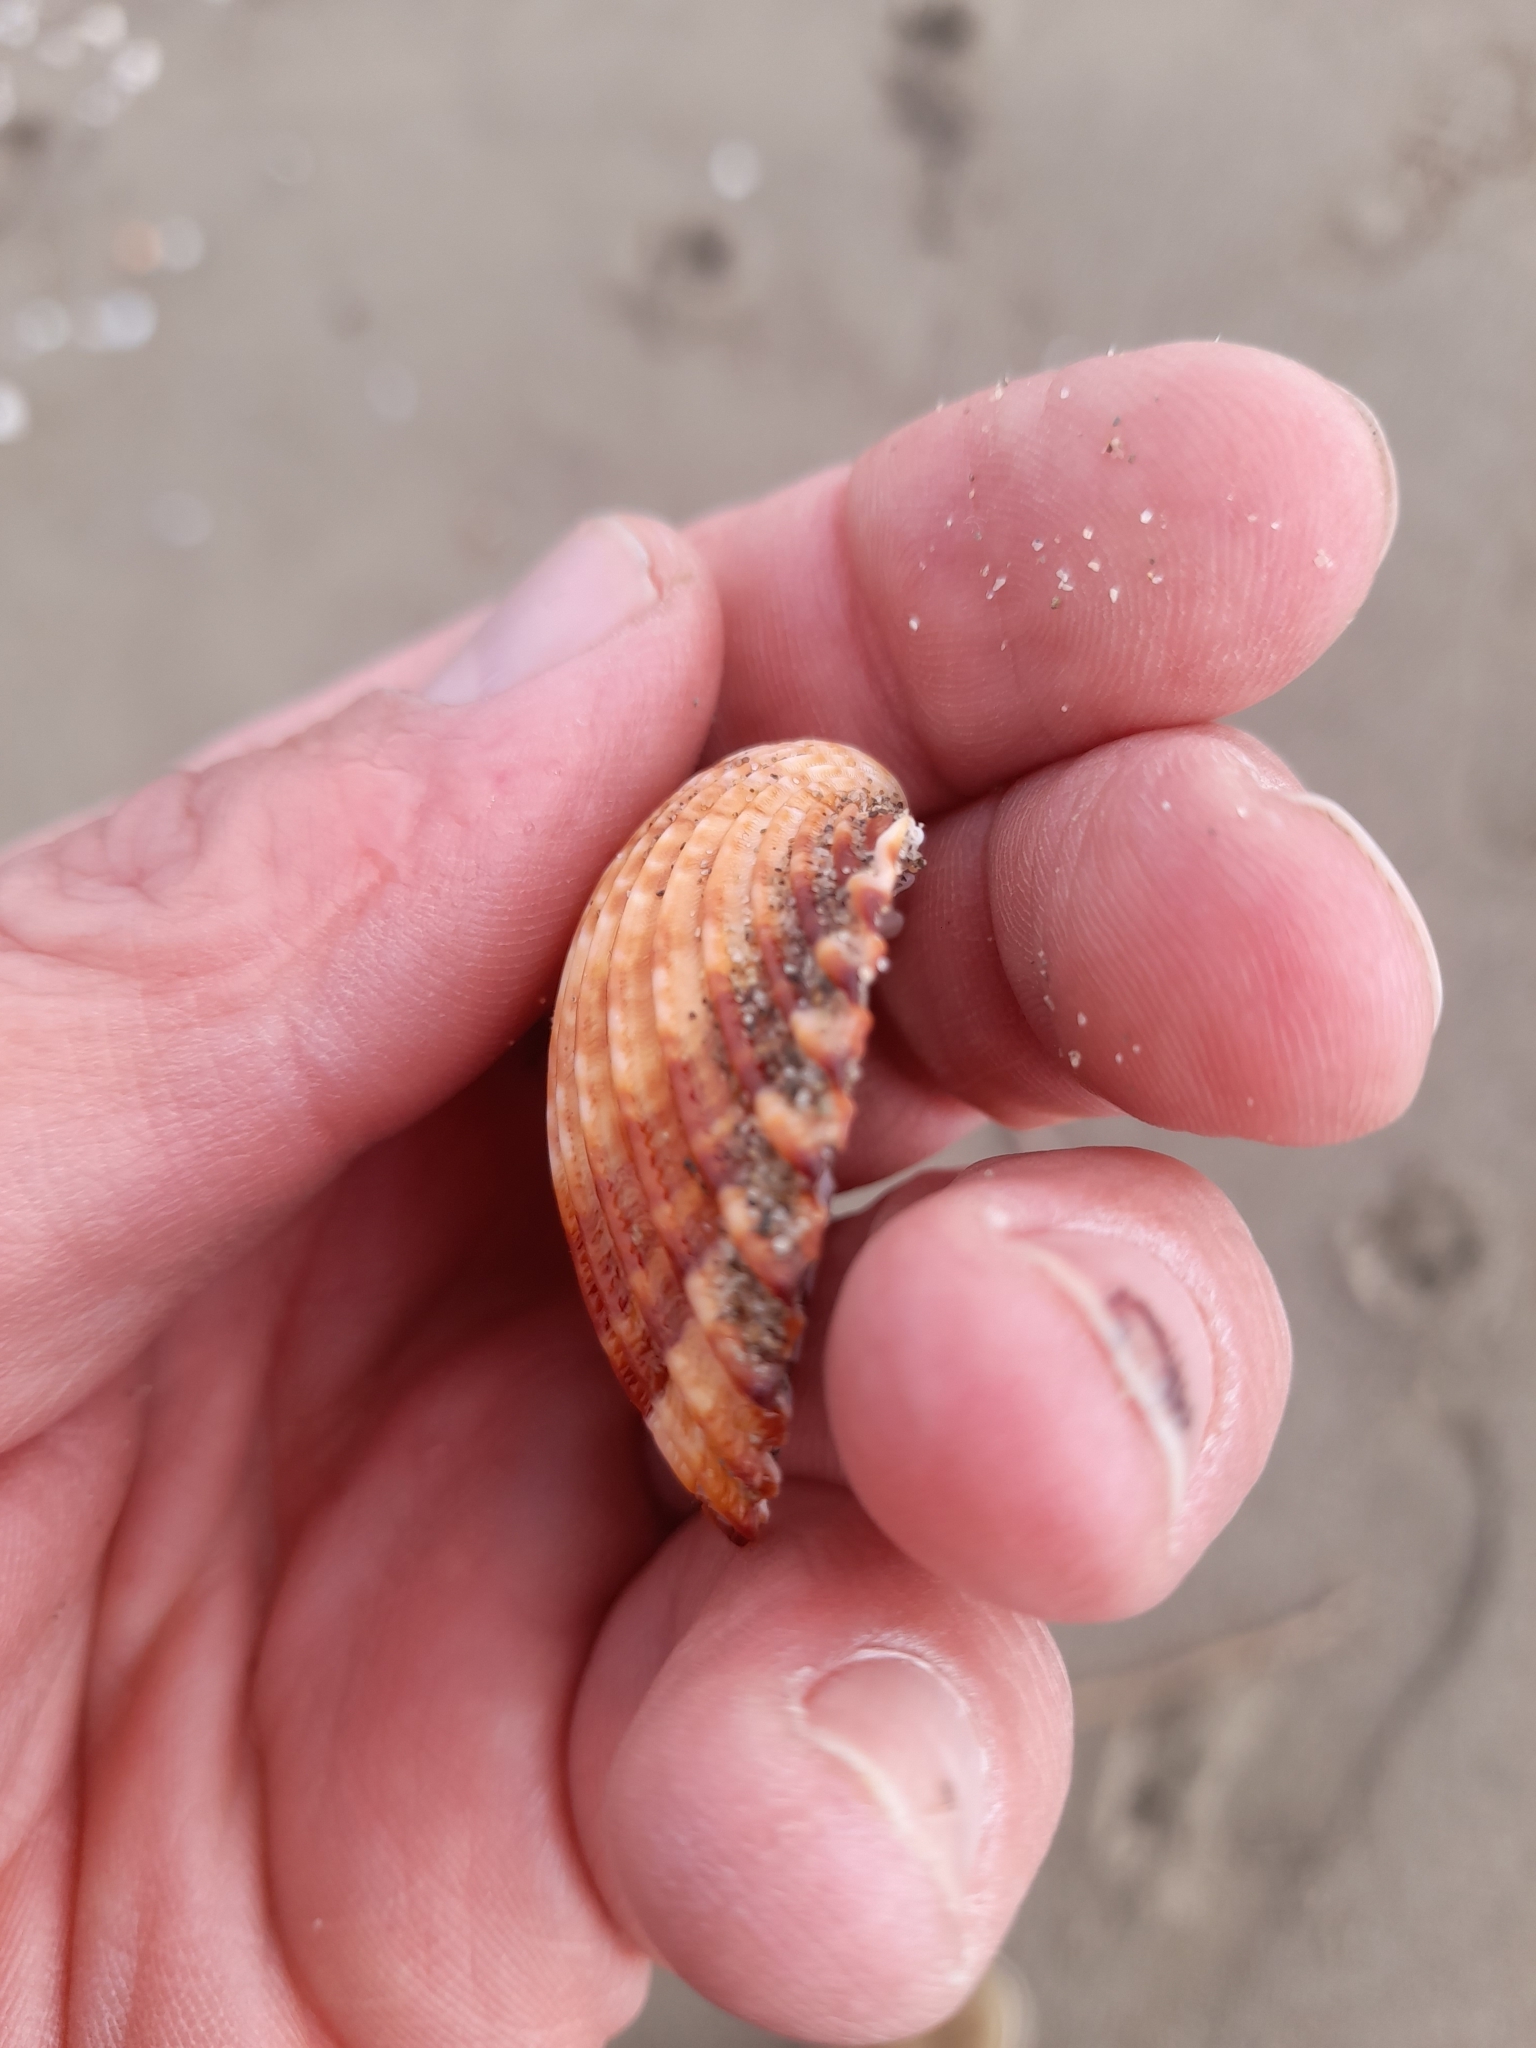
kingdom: Animalia
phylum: Mollusca
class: Bivalvia
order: Cardiida
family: Cardiidae
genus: Acanthocardia
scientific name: Acanthocardia tuberculata
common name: Rough cockle
